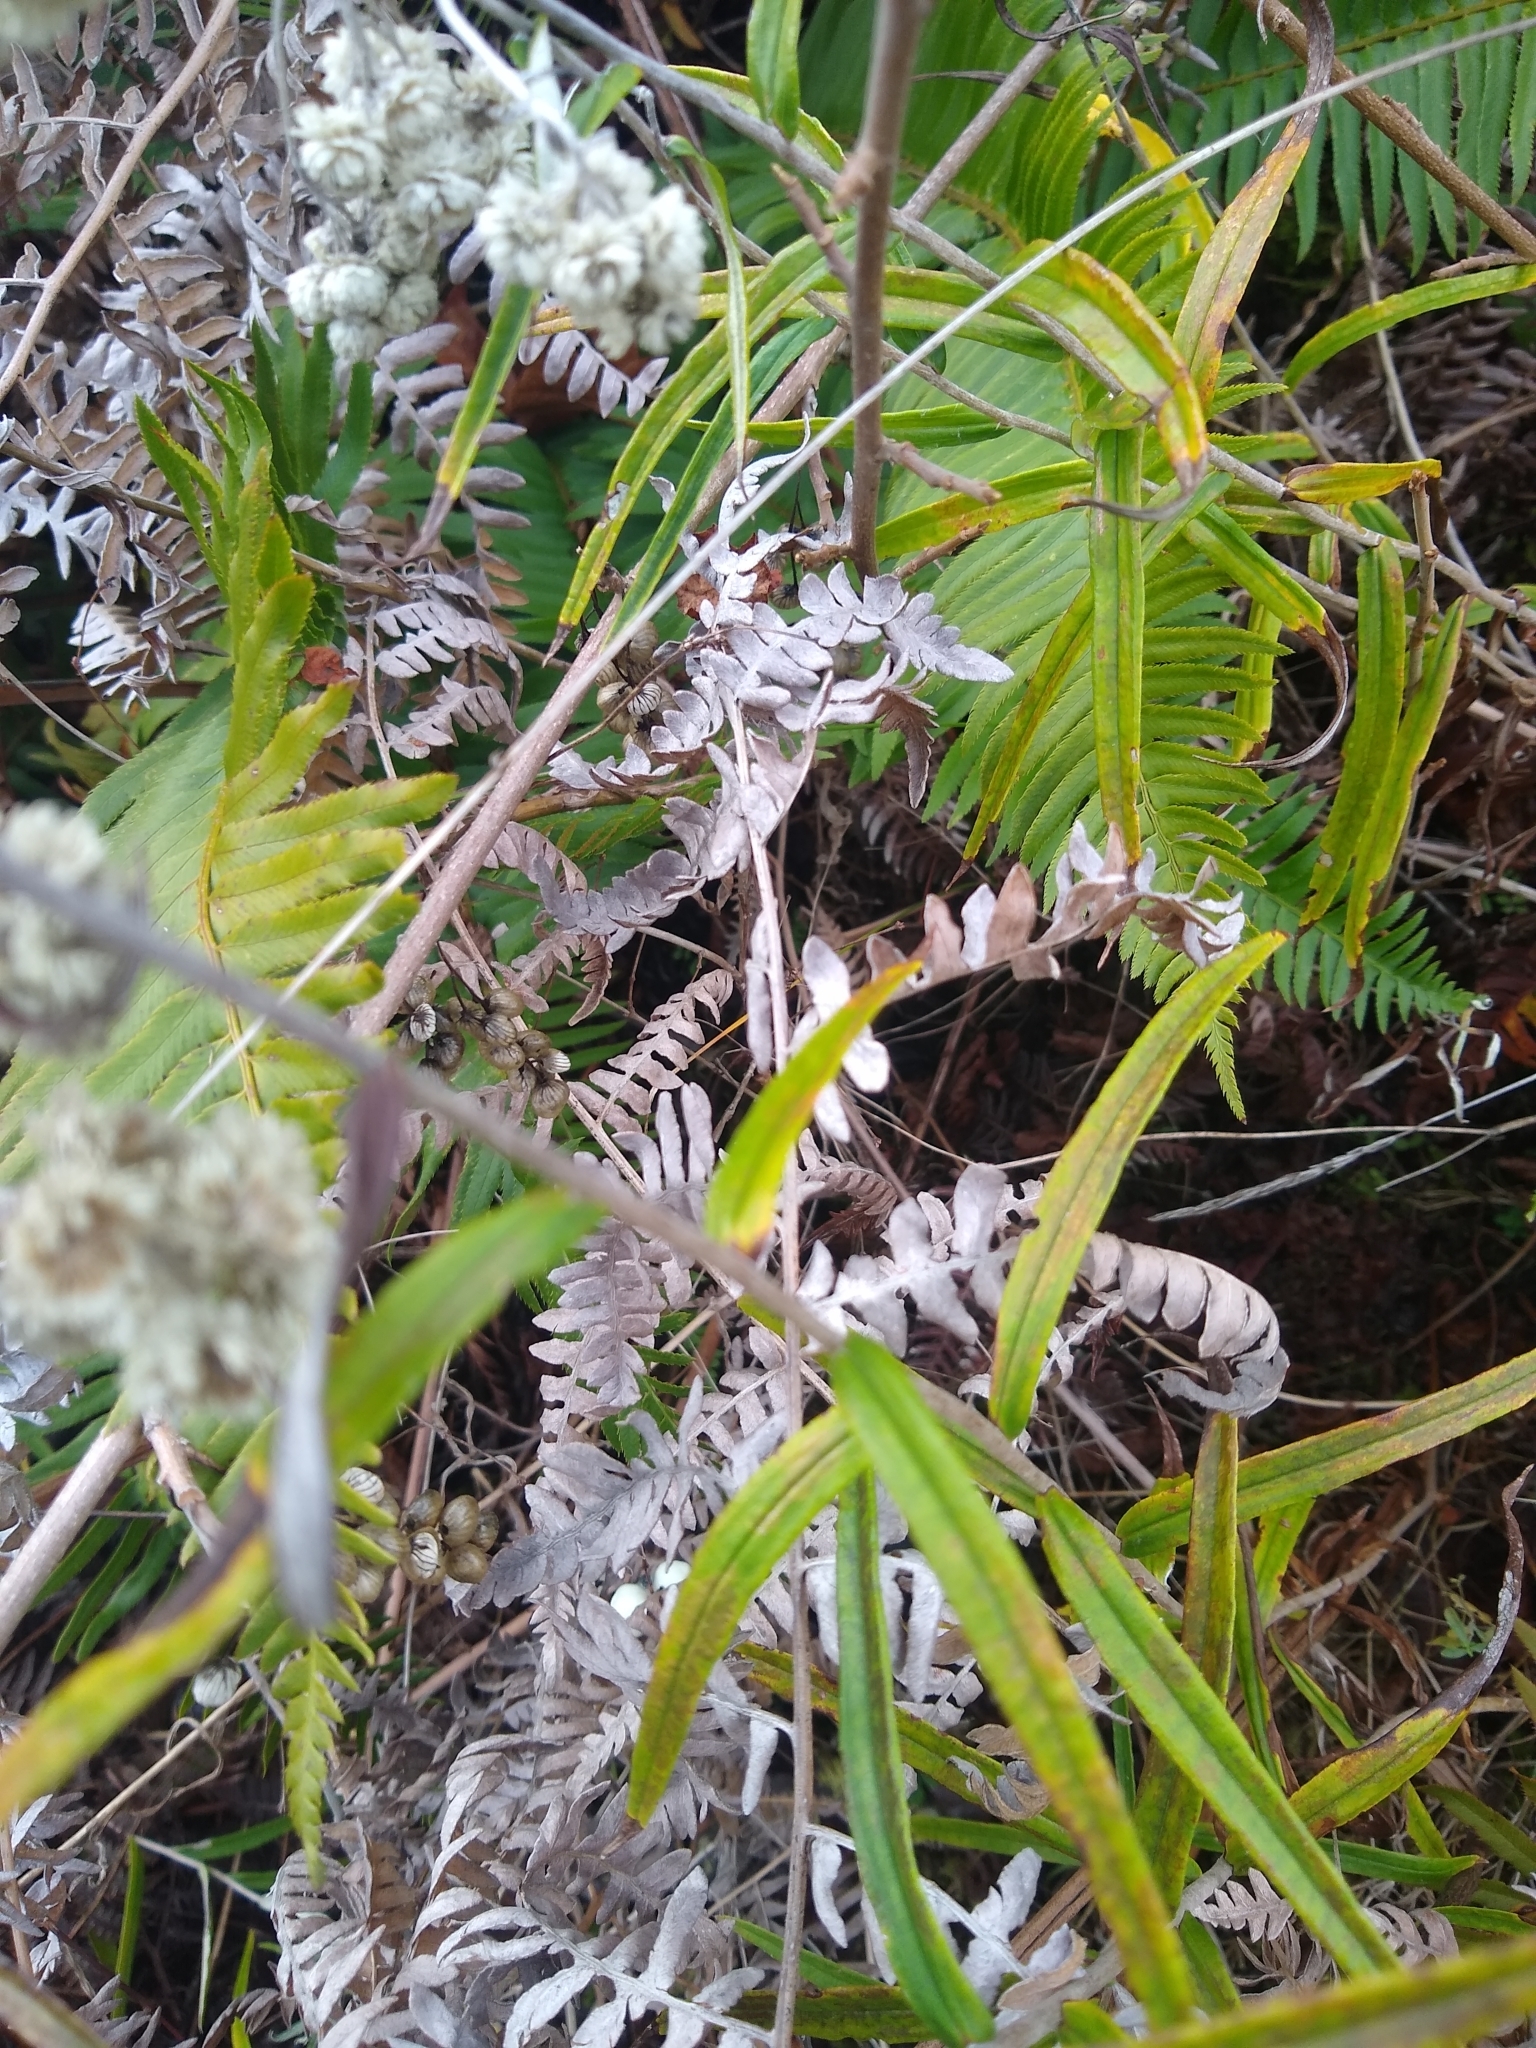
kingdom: Plantae
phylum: Tracheophyta
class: Magnoliopsida
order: Asterales
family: Asteraceae
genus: Anaphalis
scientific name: Anaphalis margaritacea
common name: Pearly everlasting
